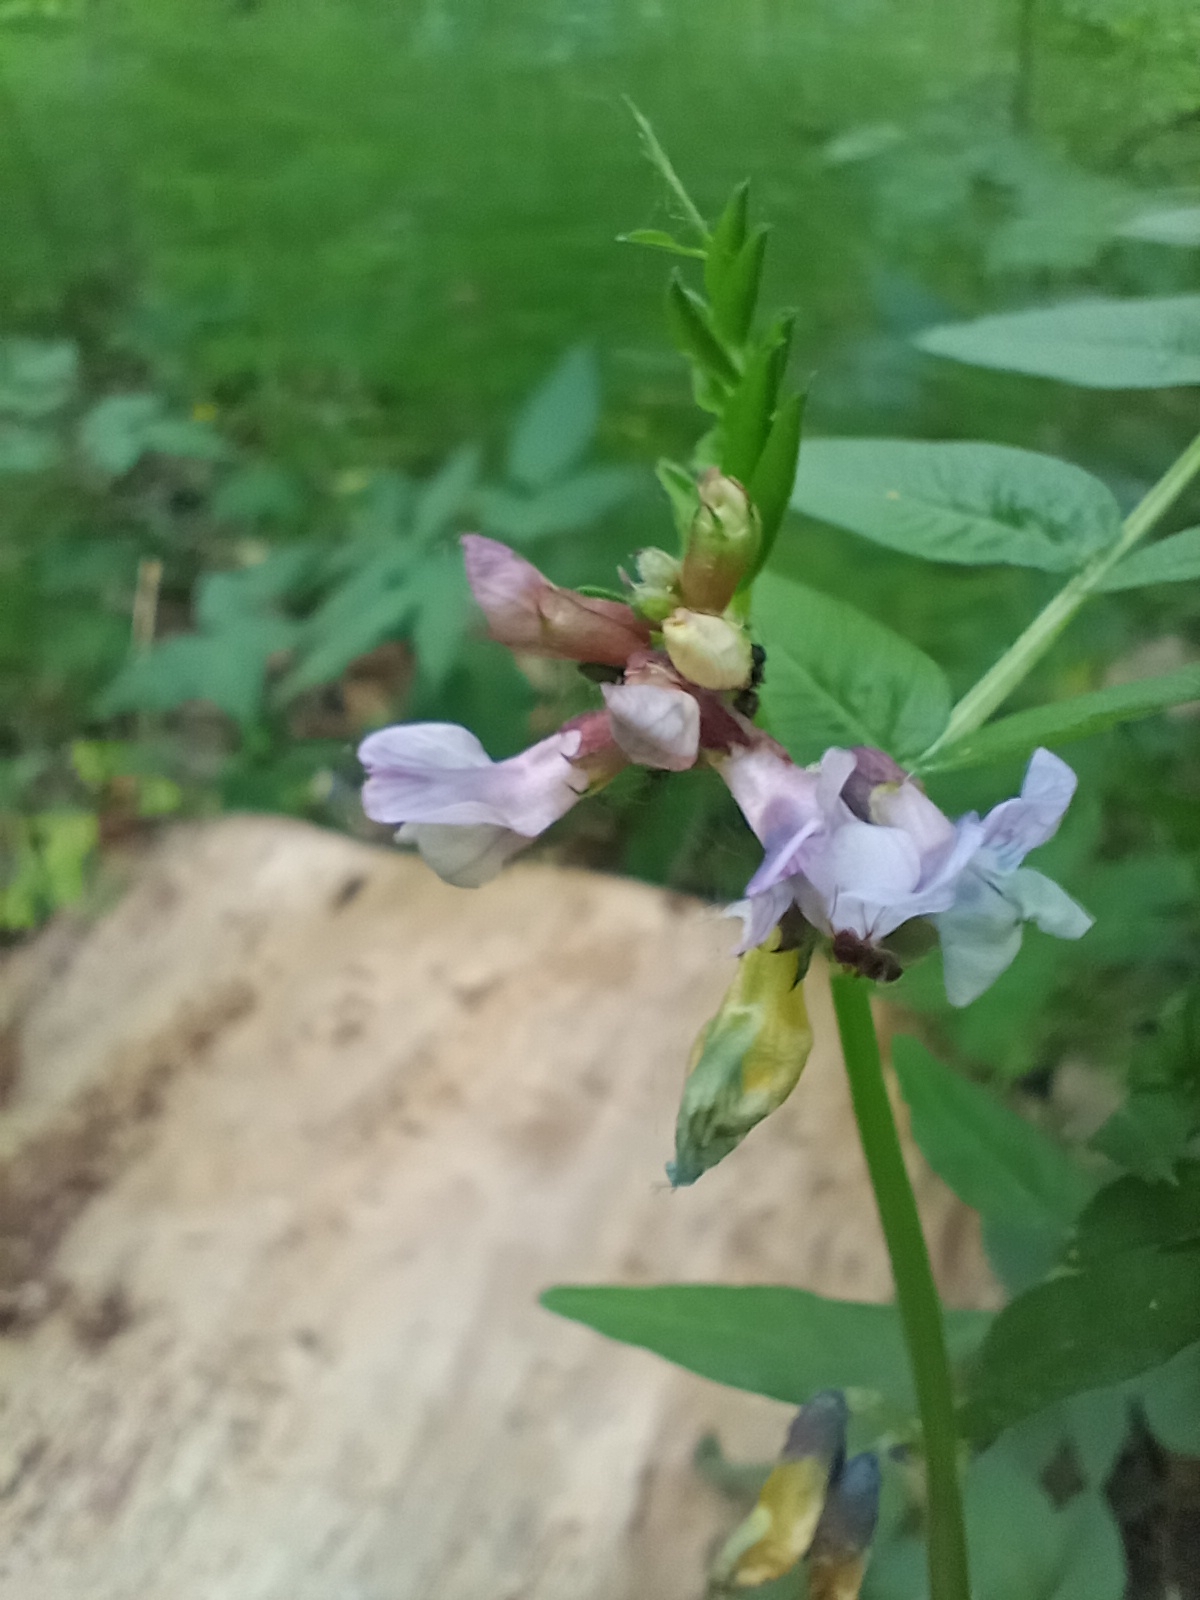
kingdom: Plantae
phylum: Tracheophyta
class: Magnoliopsida
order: Fabales
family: Fabaceae
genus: Vicia
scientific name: Vicia sepium
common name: Bush vetch
